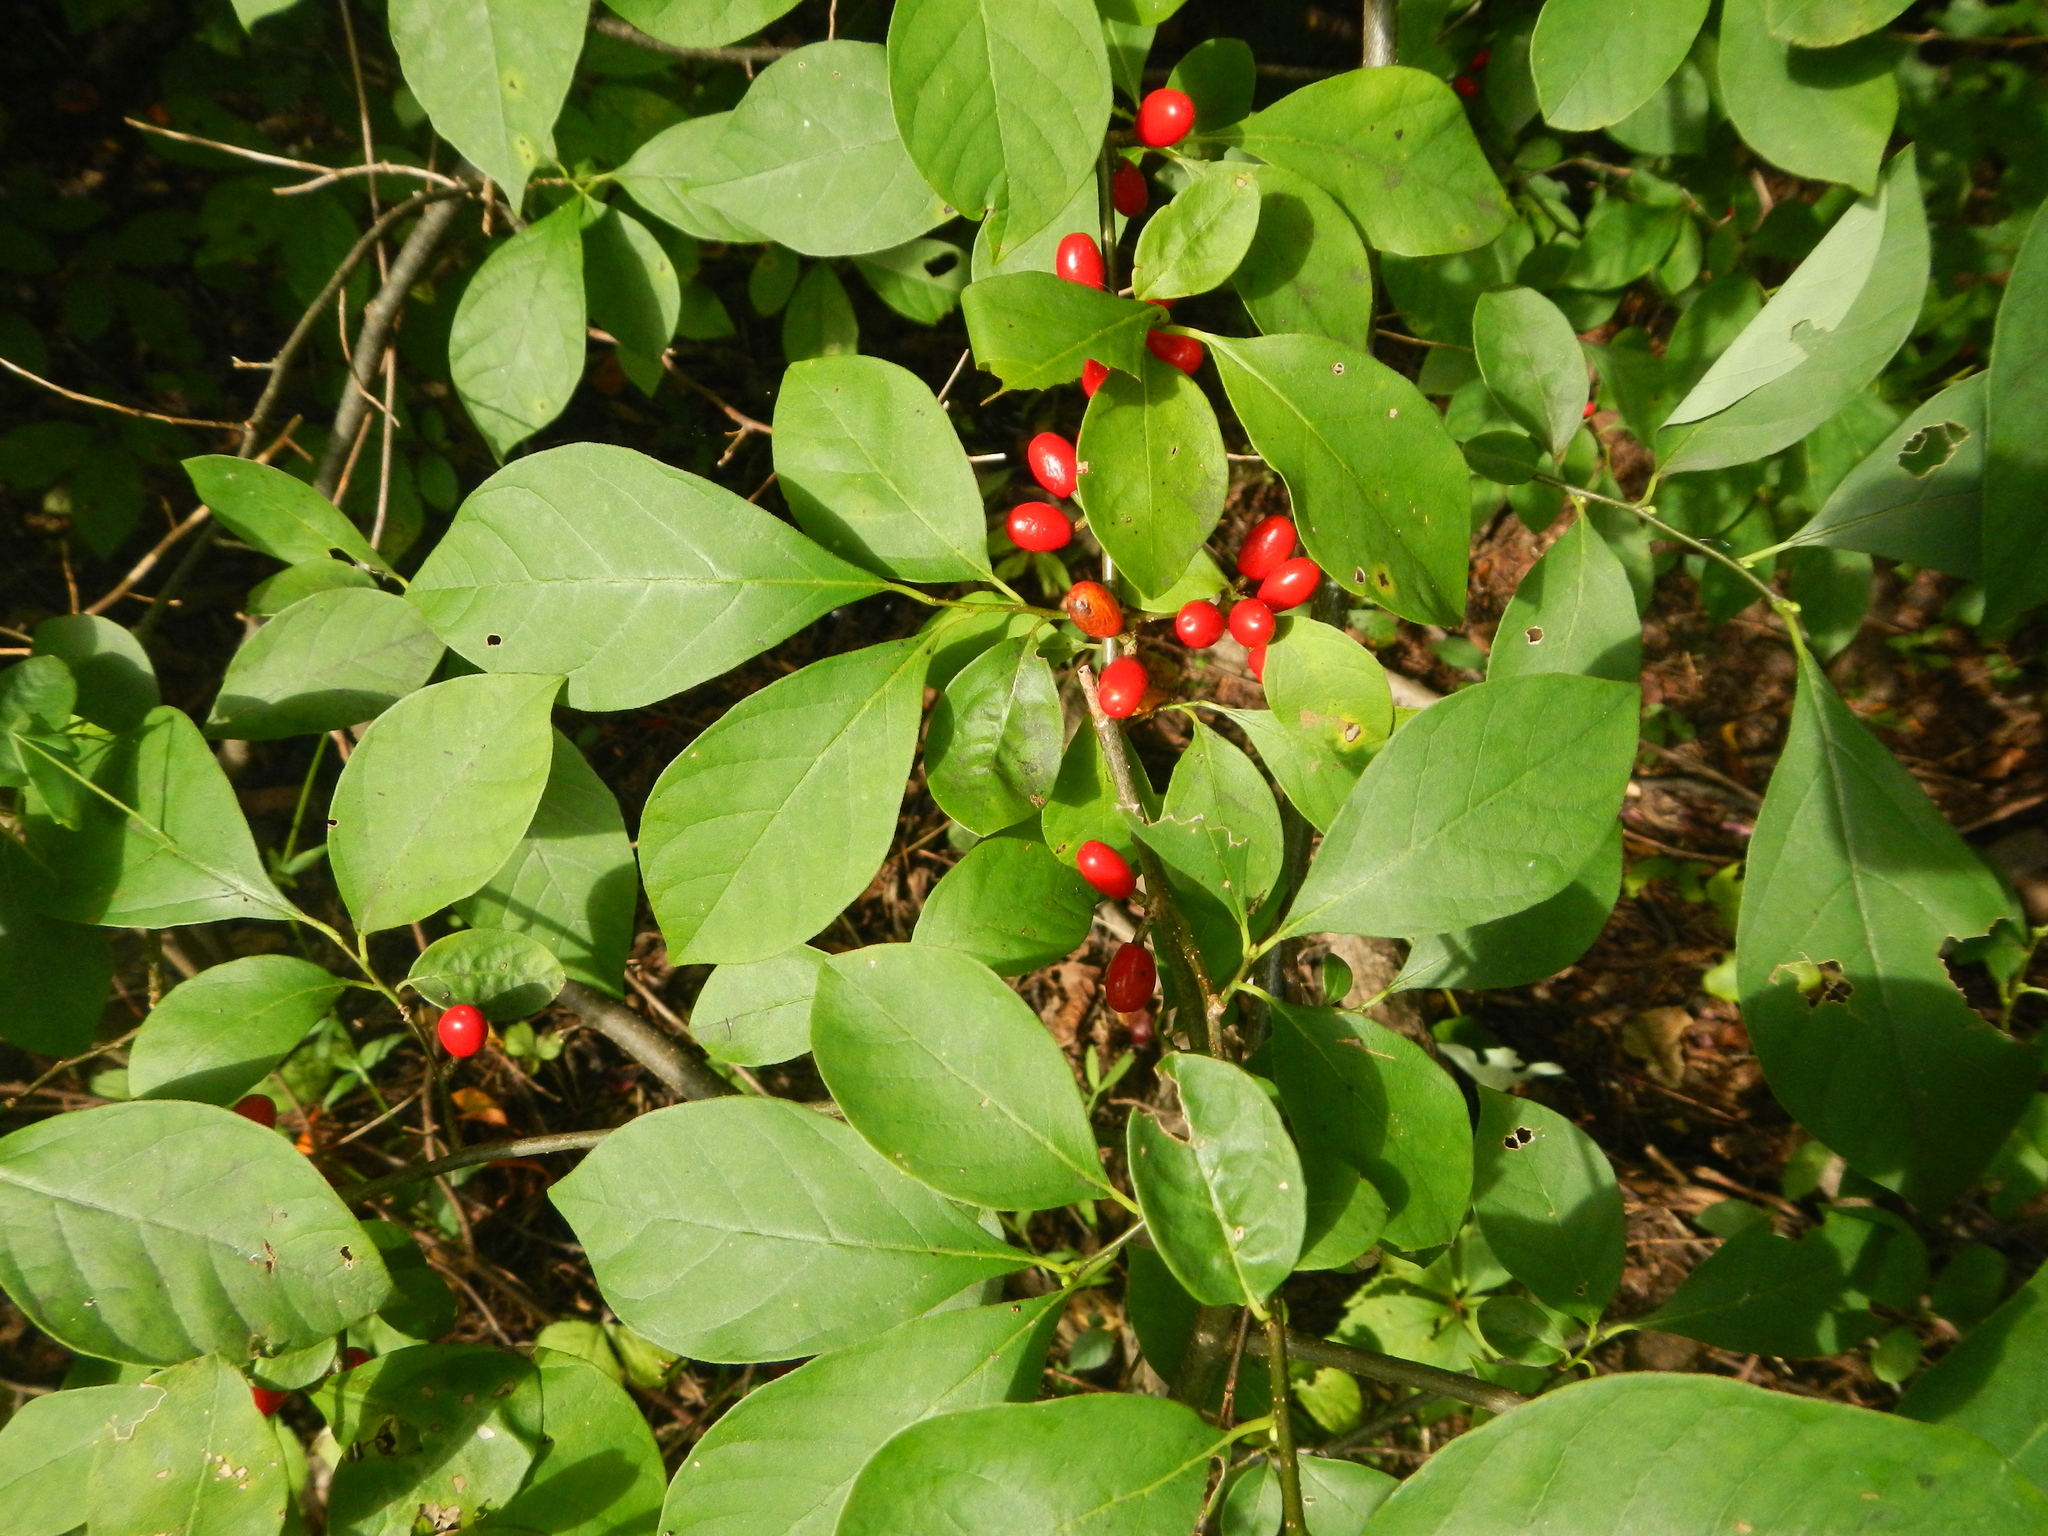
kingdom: Plantae
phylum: Tracheophyta
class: Magnoliopsida
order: Laurales
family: Lauraceae
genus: Lindera
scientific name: Lindera benzoin
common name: Spicebush
